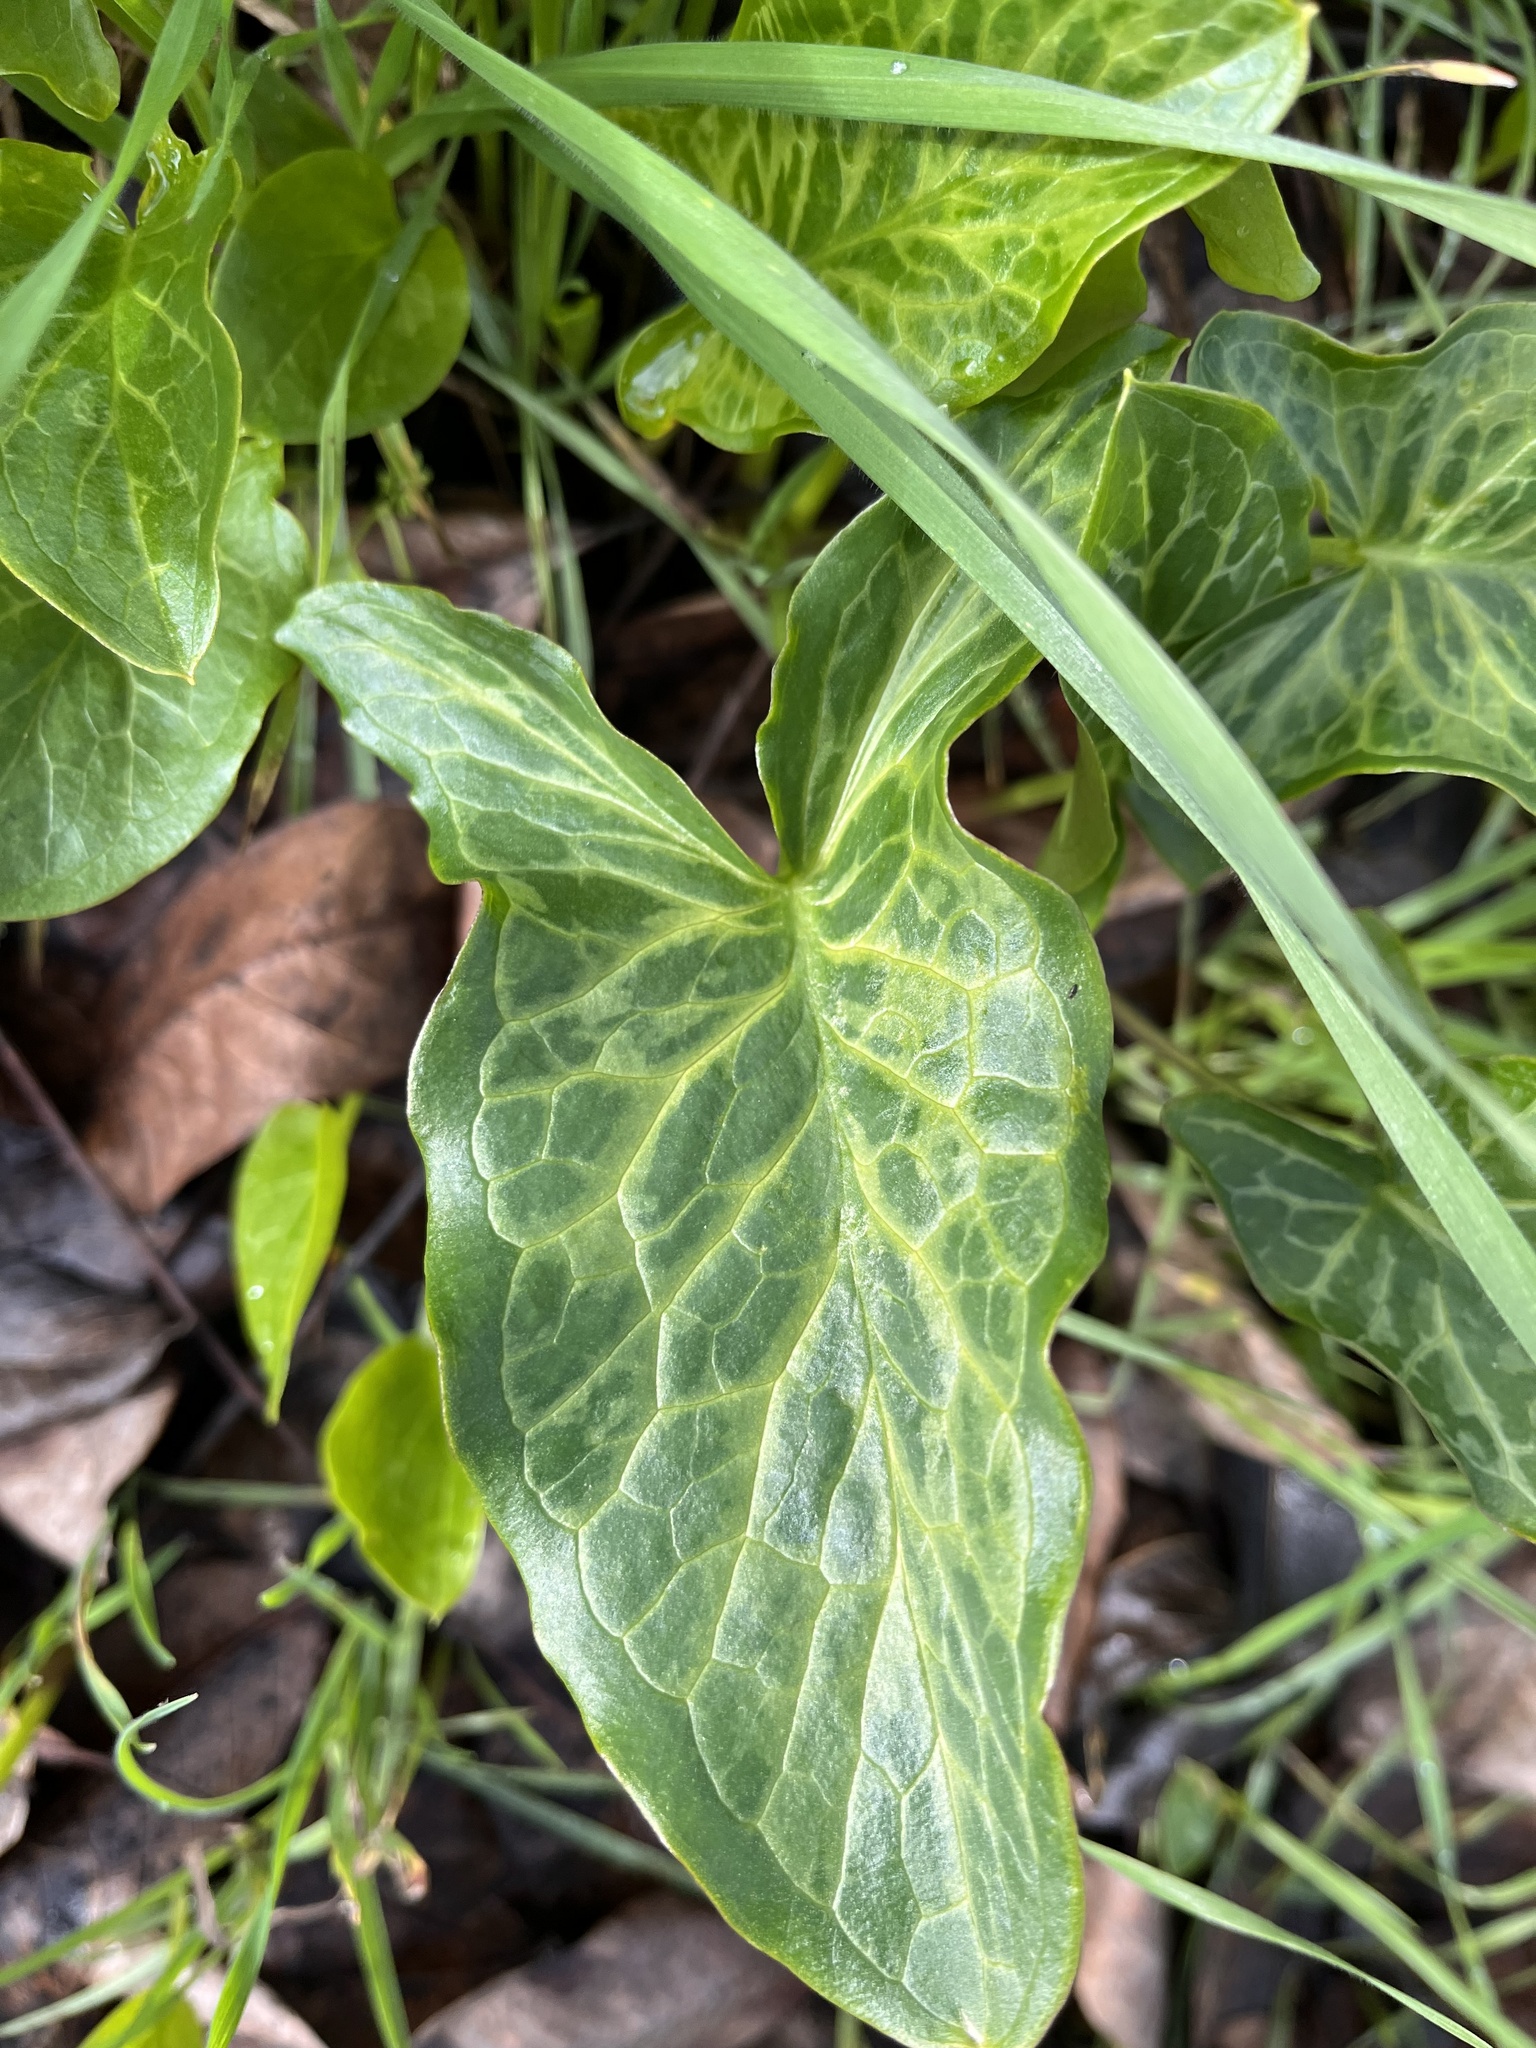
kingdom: Plantae
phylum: Tracheophyta
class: Liliopsida
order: Alismatales
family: Araceae
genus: Arum
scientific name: Arum italicum
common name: Italian lords-and-ladies
